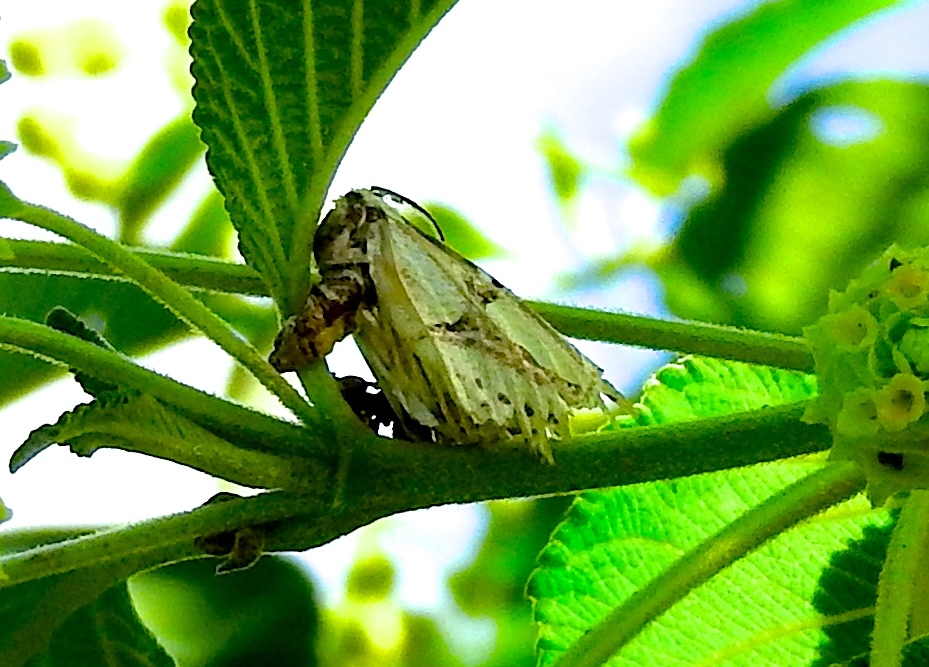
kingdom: Animalia
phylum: Arthropoda
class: Insecta
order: Lepidoptera
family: Erebidae
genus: Diphthera
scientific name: Diphthera festiva
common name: Hieroglyphic moth
